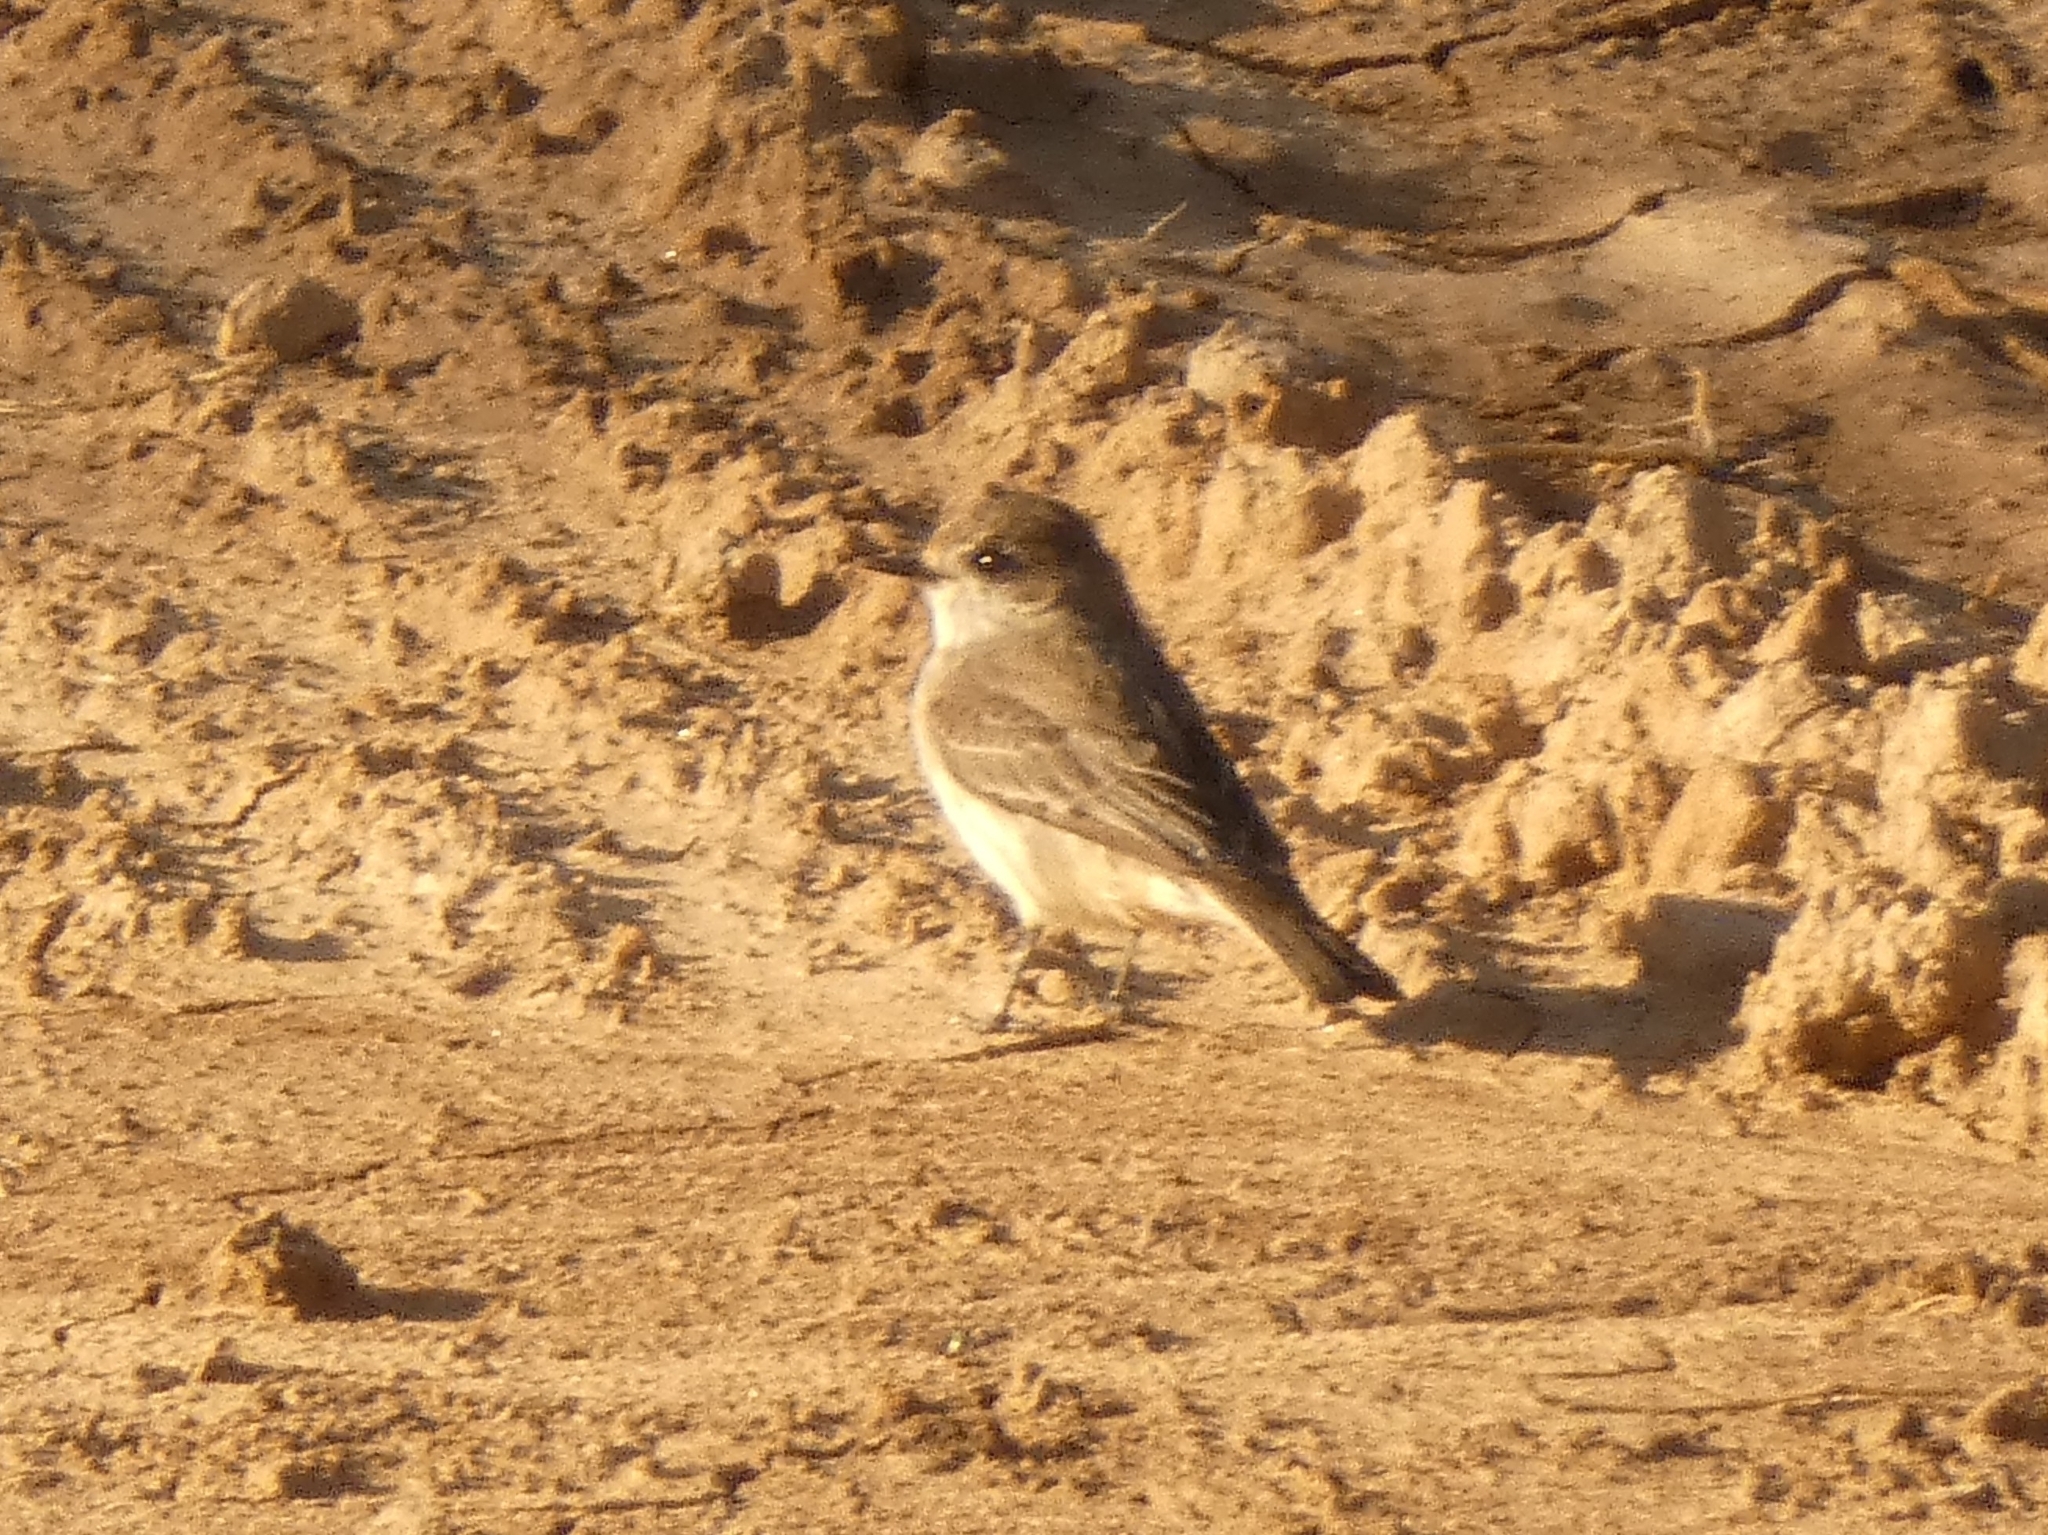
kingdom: Animalia
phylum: Chordata
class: Aves
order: Passeriformes
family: Tyrannidae
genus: Pyrocephalus
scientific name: Pyrocephalus rubinus
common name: Vermilion flycatcher
